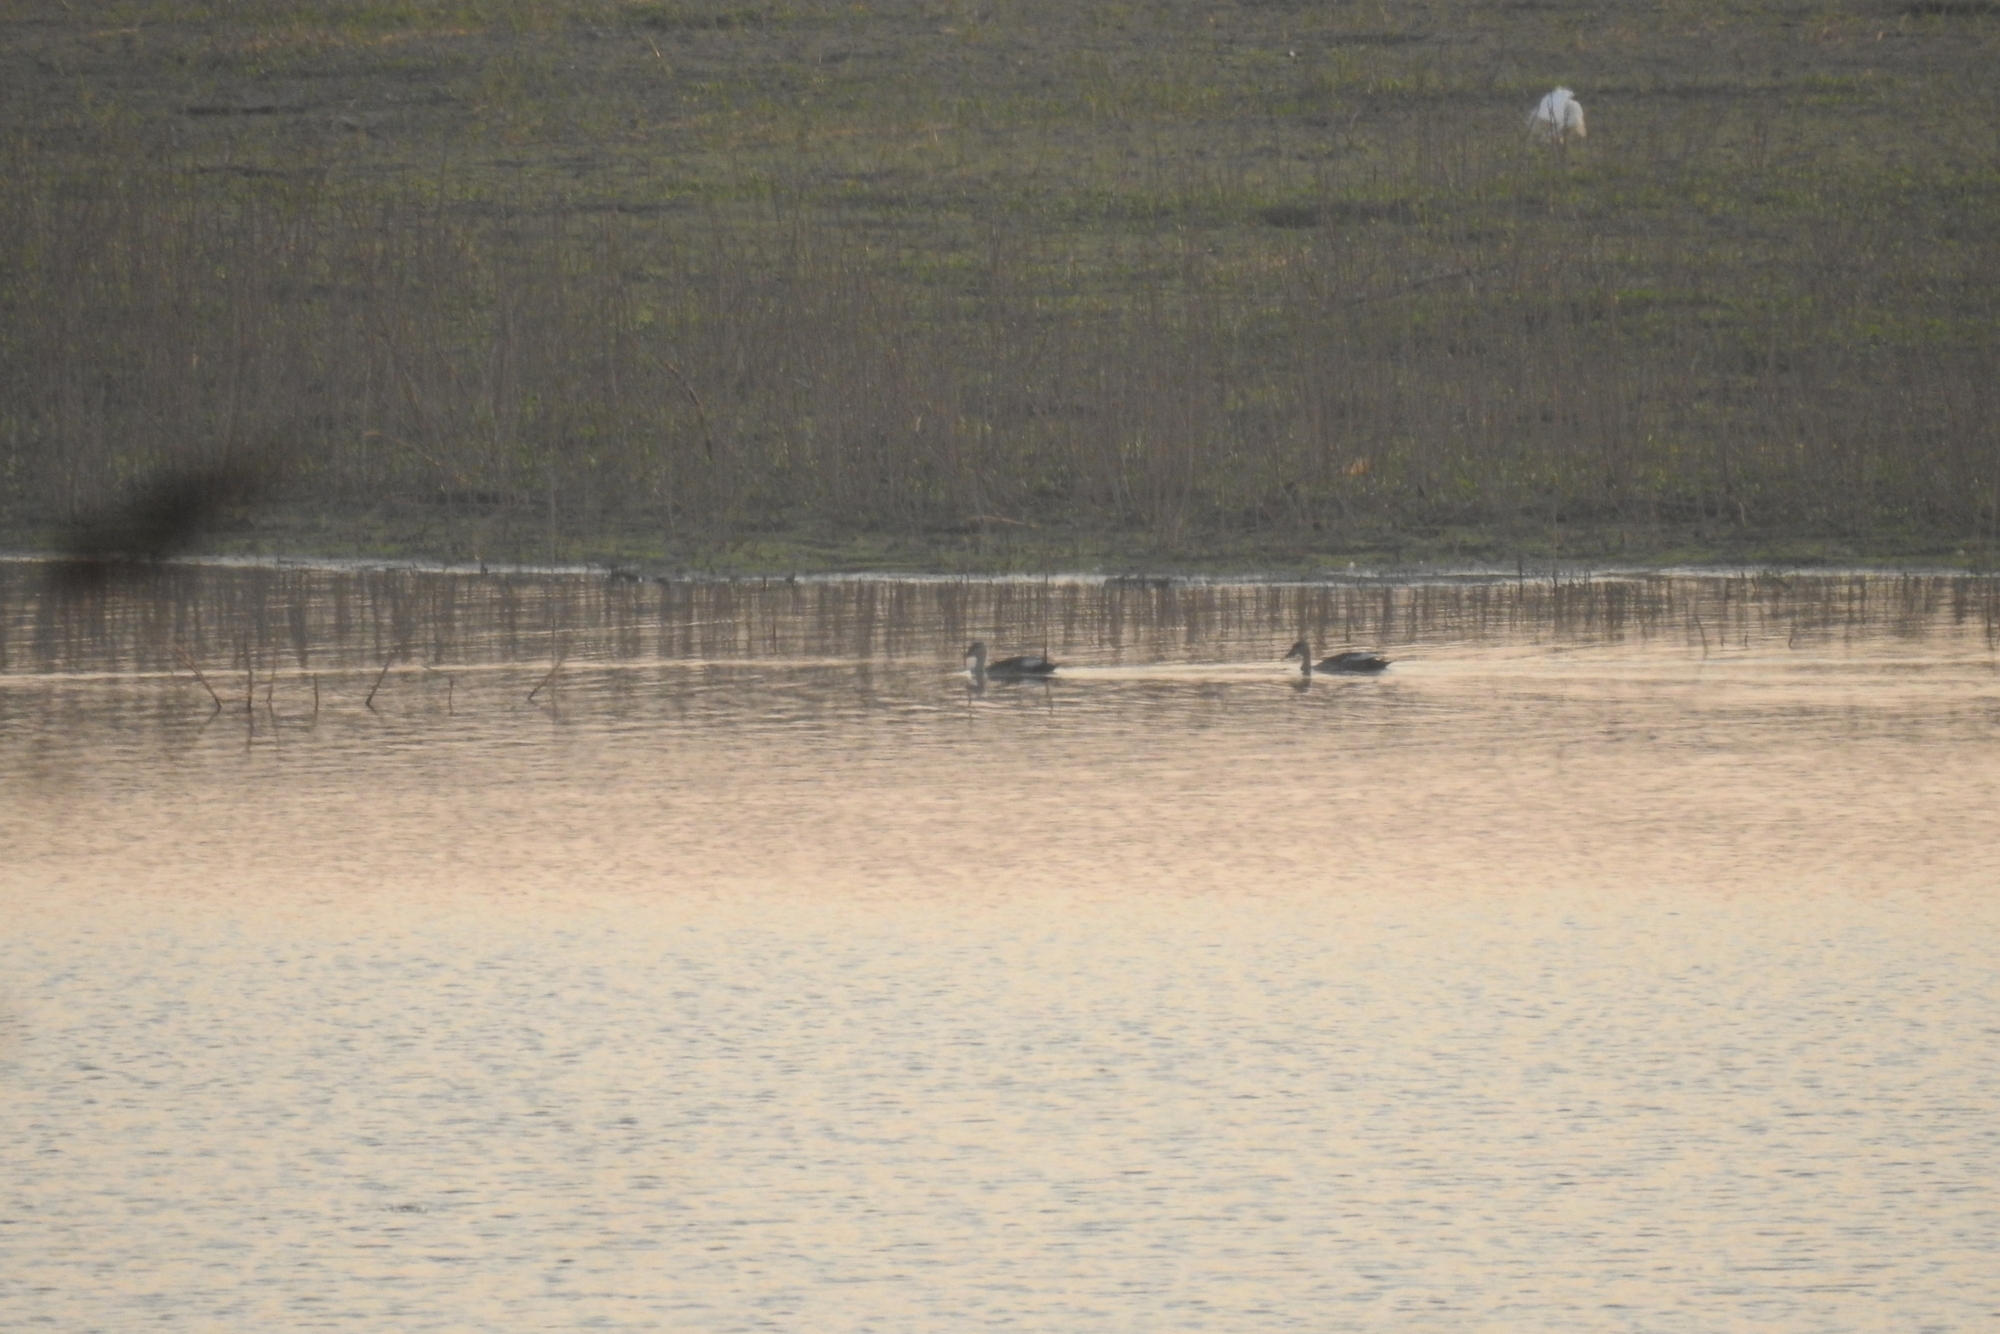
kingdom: Animalia
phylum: Chordata
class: Aves
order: Anseriformes
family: Anatidae
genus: Anas
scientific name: Anas poecilorhyncha
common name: Indian spot-billed duck
